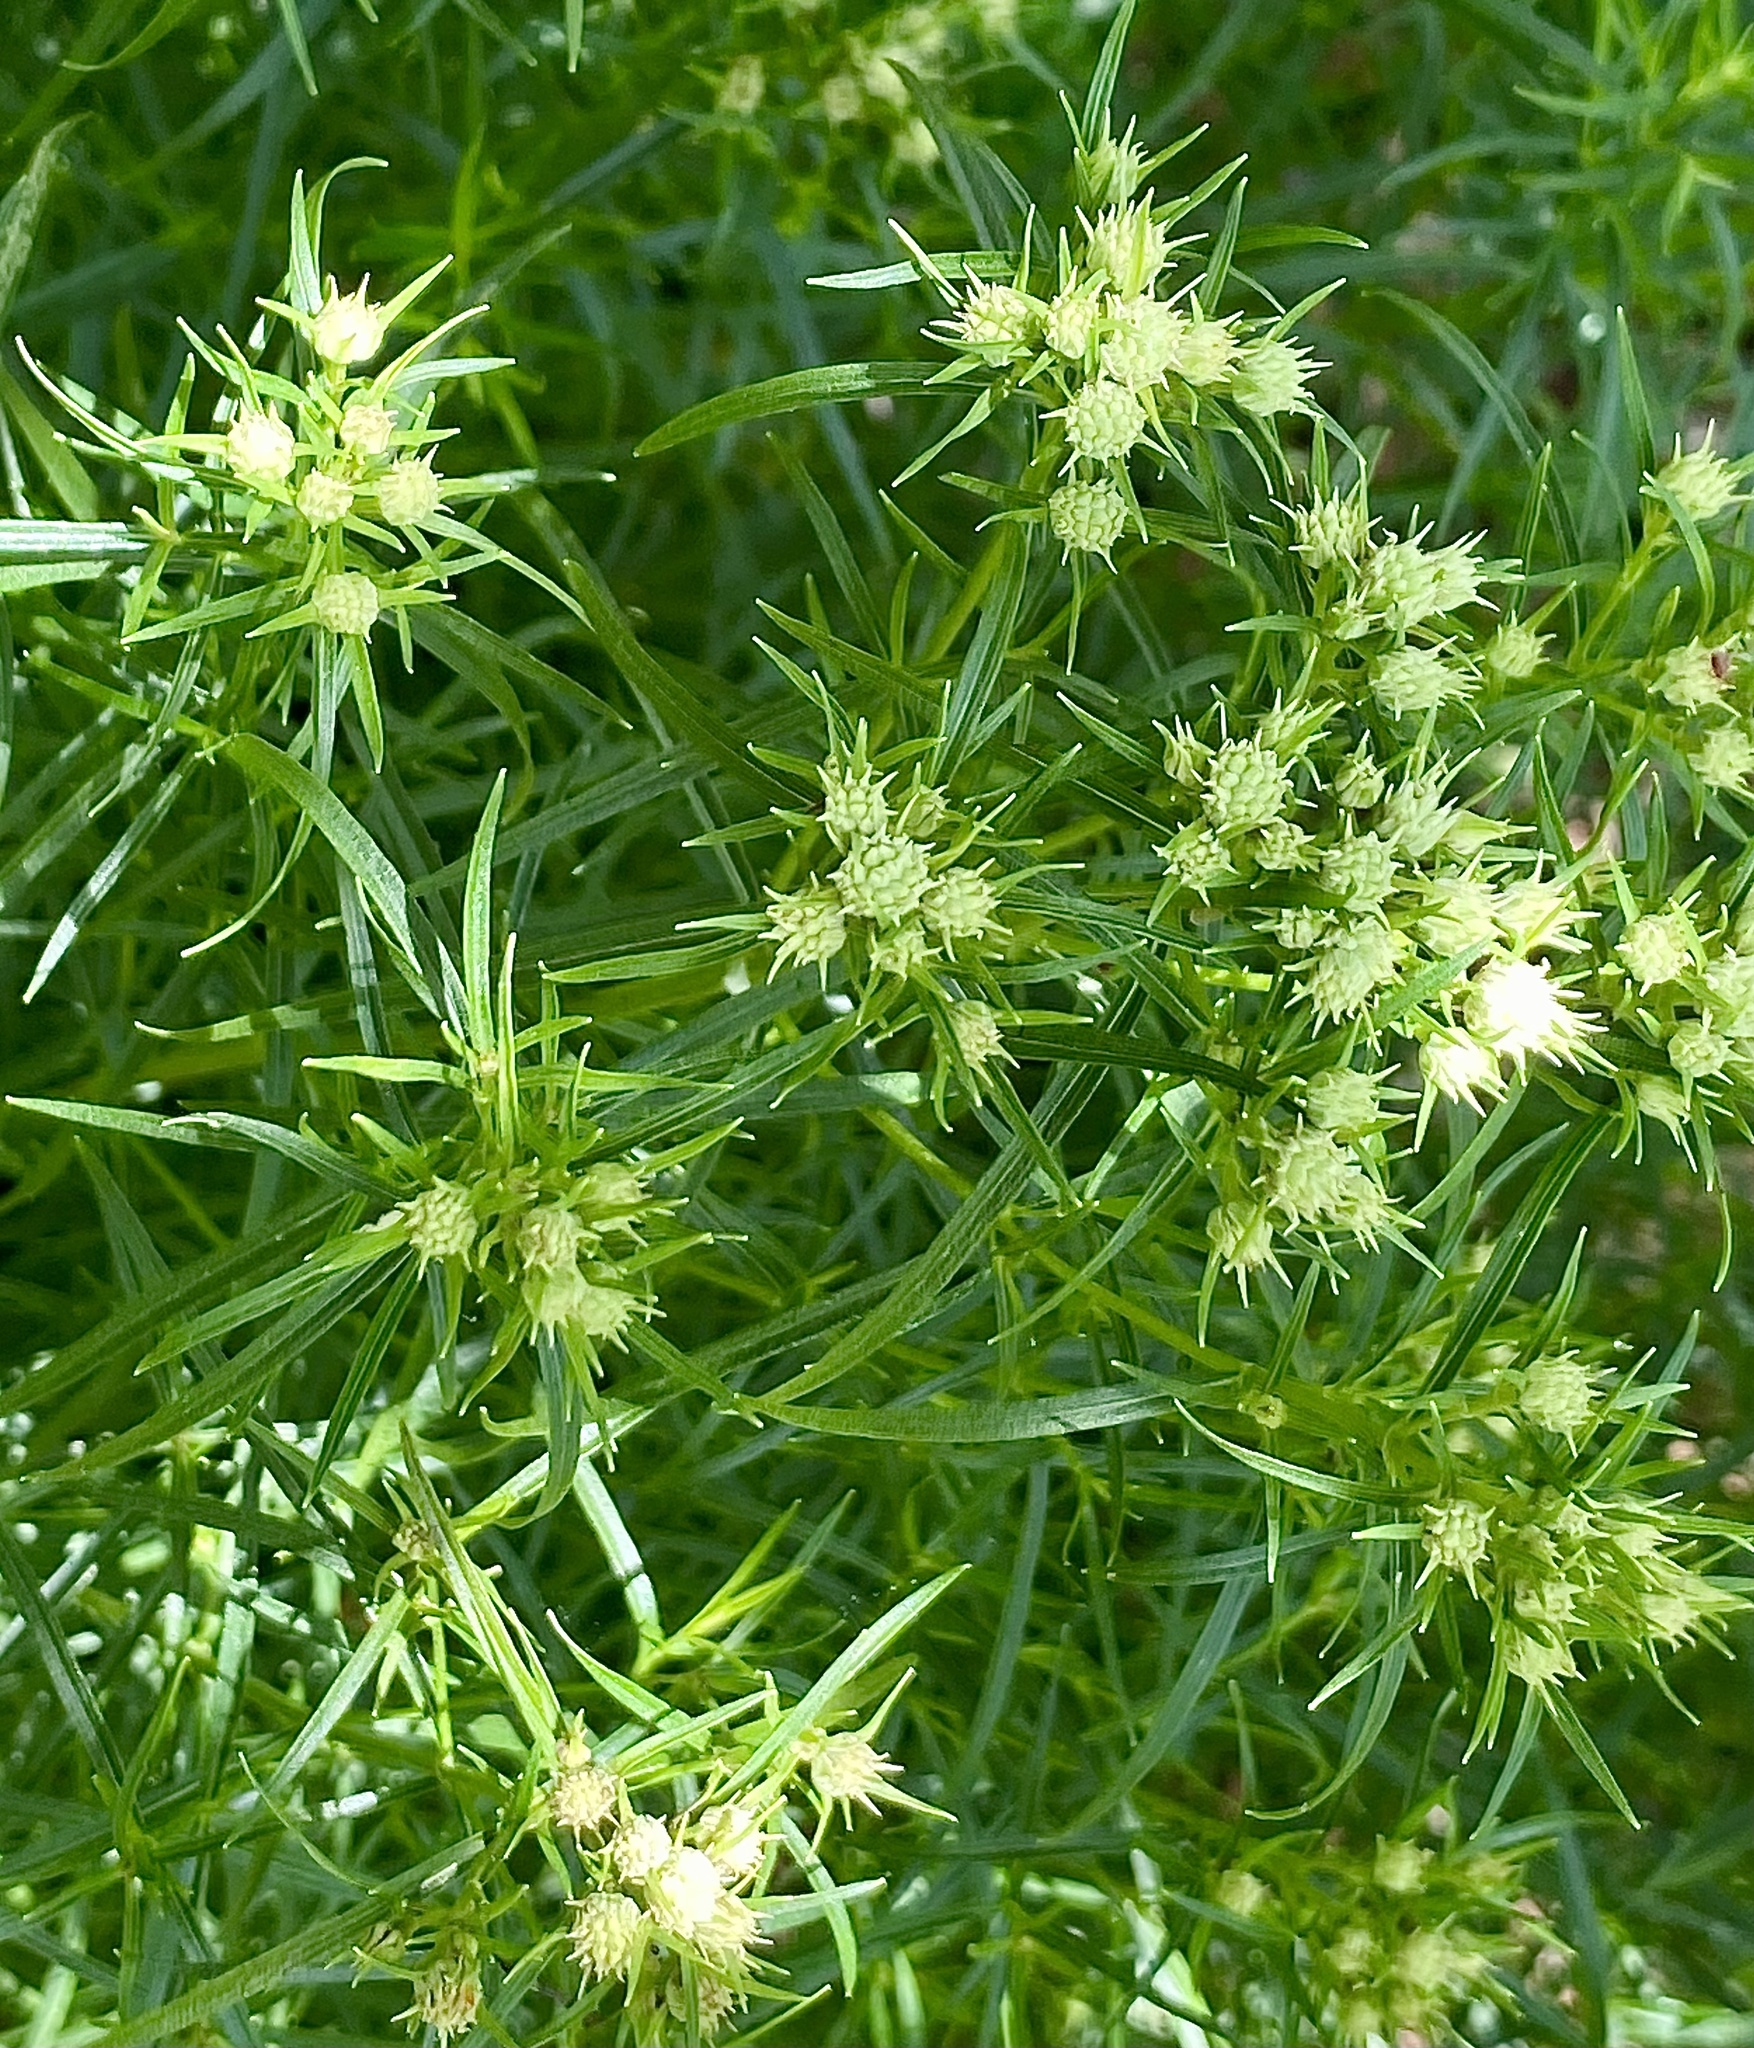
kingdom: Plantae
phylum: Tracheophyta
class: Magnoliopsida
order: Lamiales
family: Lamiaceae
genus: Pycnanthemum
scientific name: Pycnanthemum tenuifolium
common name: Narrow-leaf mountain-mint
